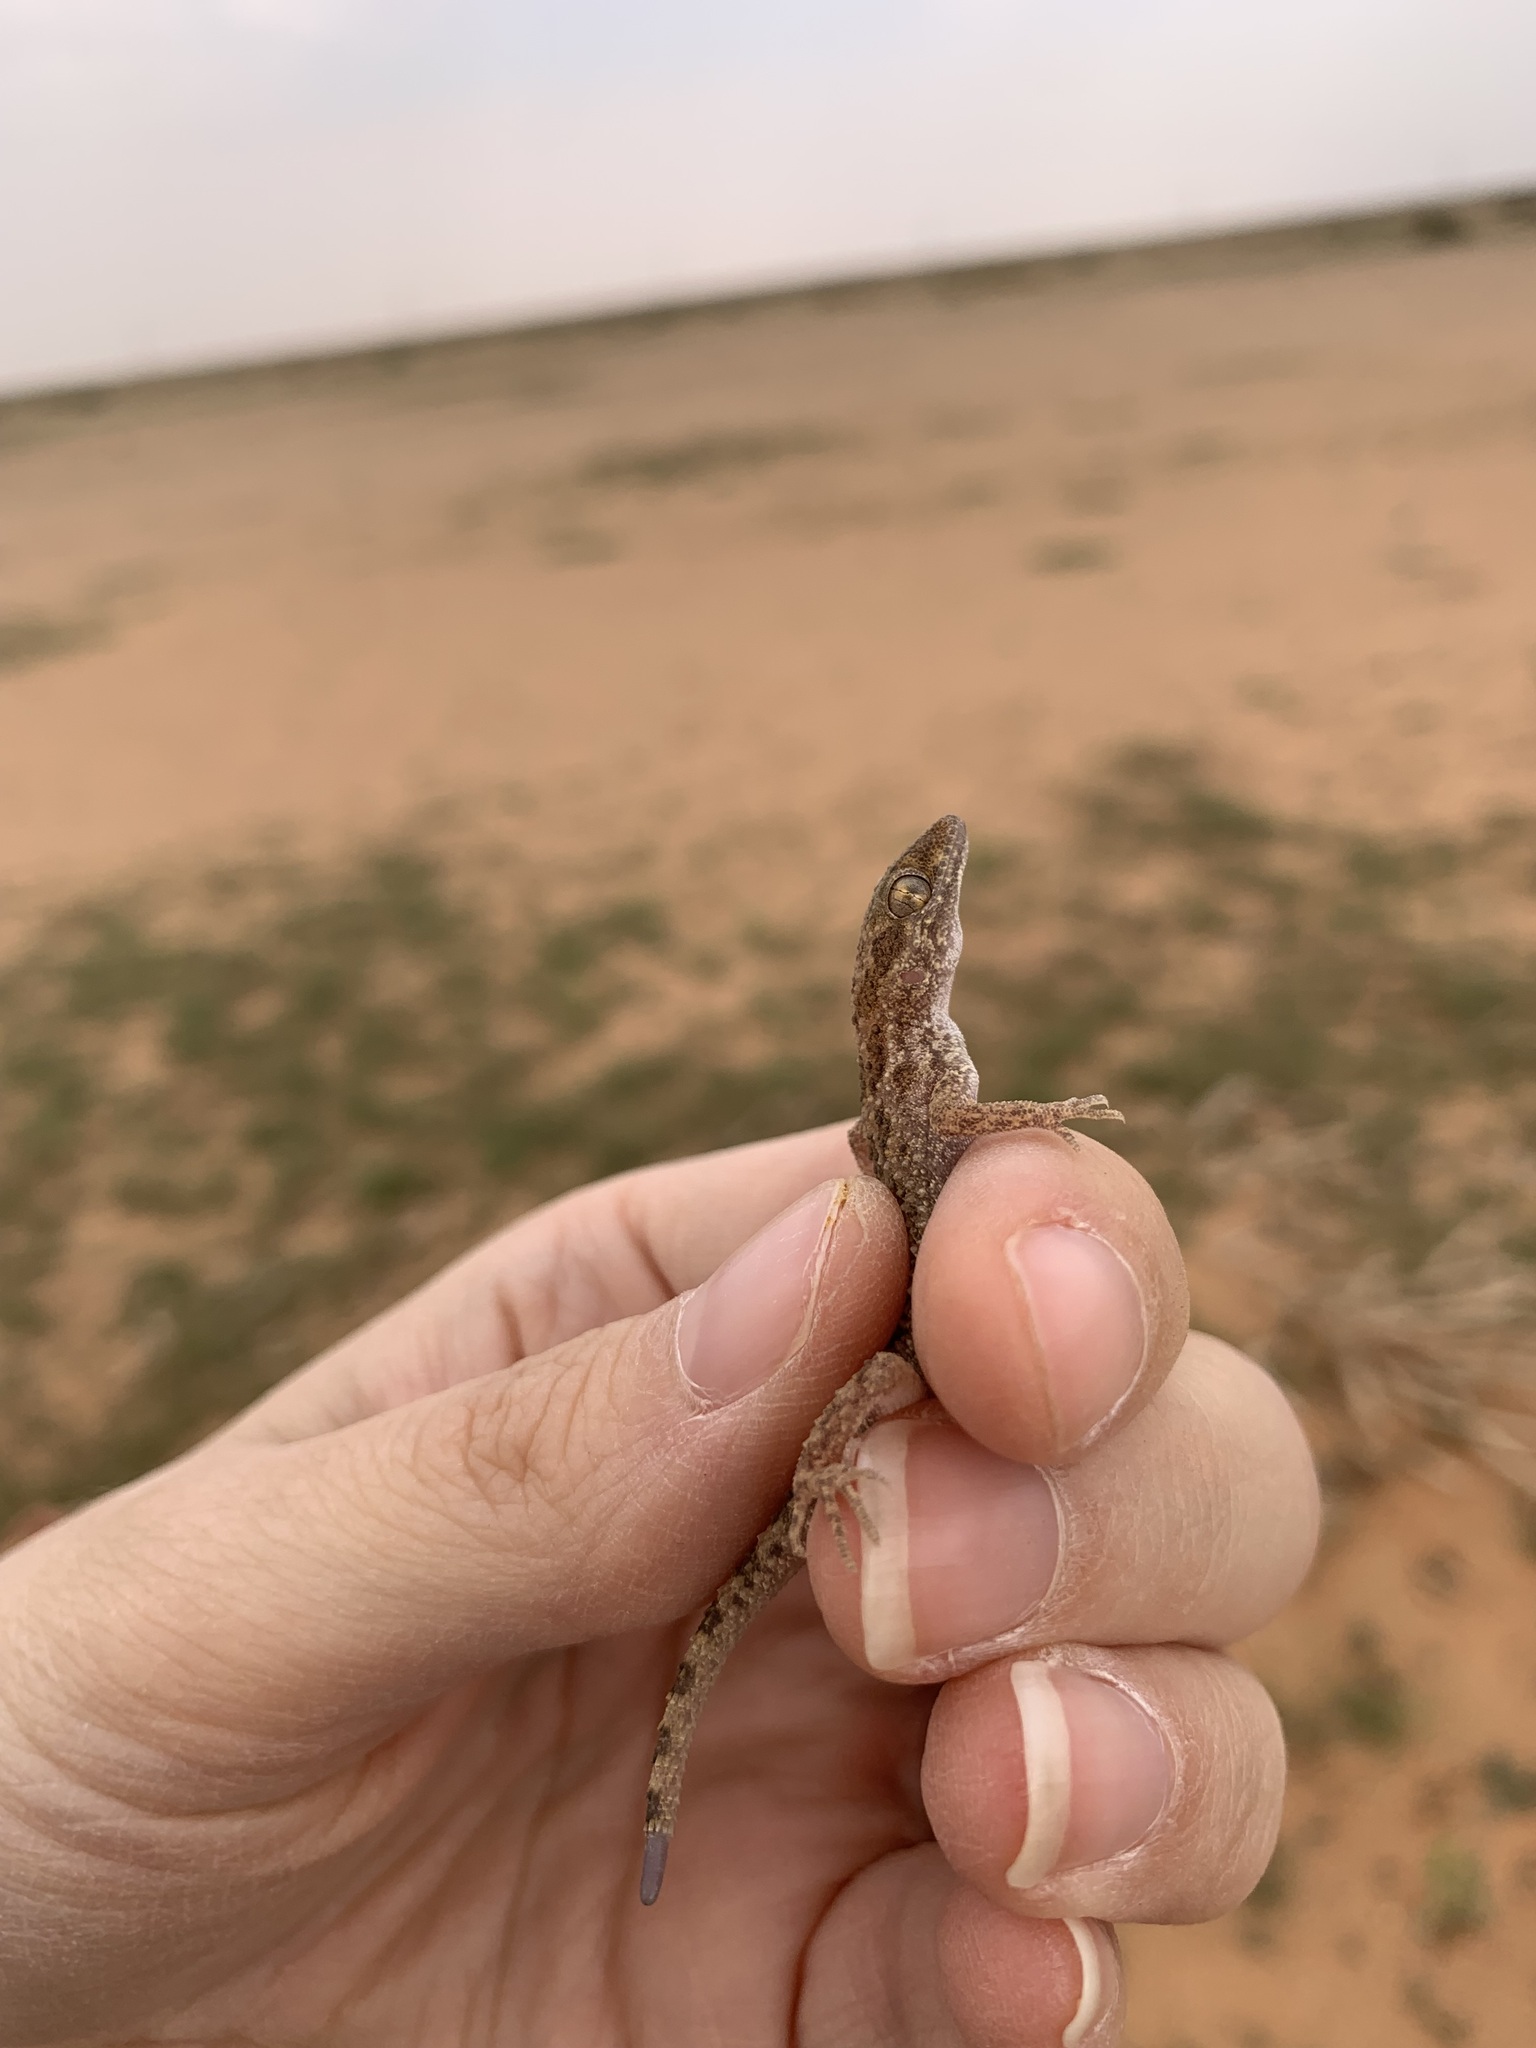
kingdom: Animalia
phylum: Chordata
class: Squamata
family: Gekkonidae
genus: Bunopus
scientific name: Bunopus tuberculatus
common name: Southern tuberculated gecko
